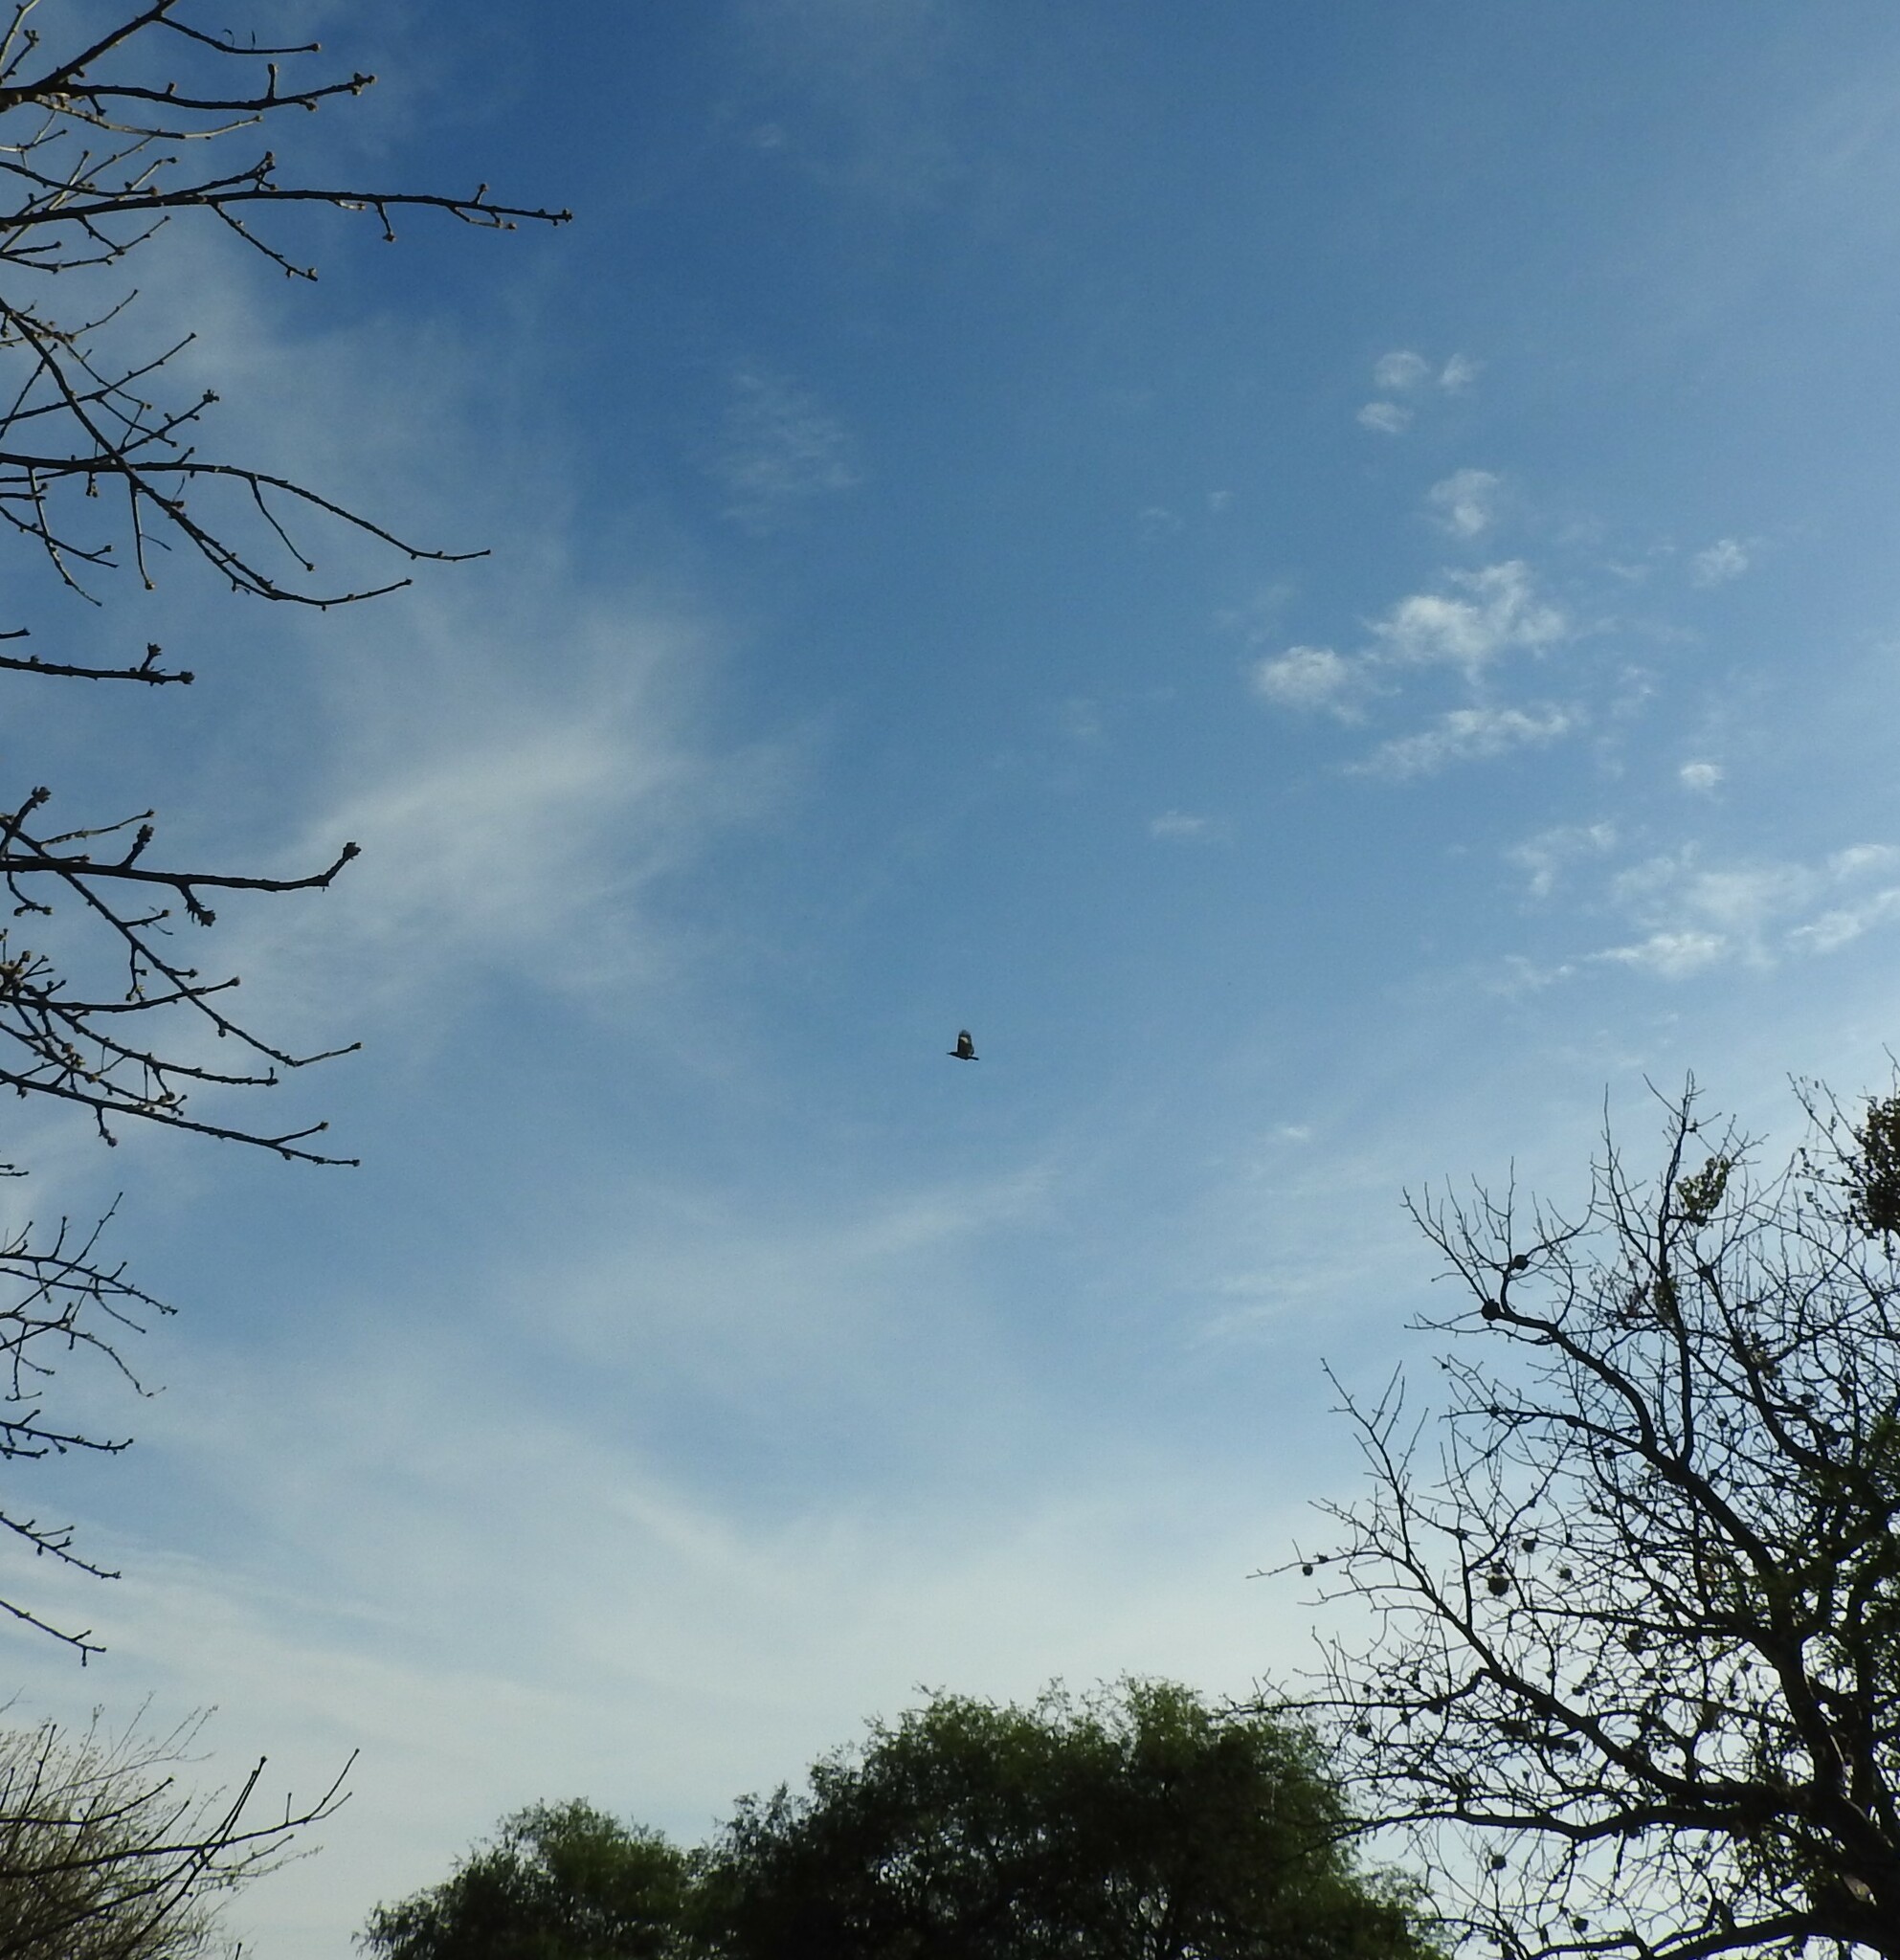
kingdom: Animalia
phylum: Chordata
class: Aves
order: Piciformes
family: Picidae
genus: Melanerpes
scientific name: Melanerpes aurifrons
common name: Golden-fronted woodpecker
